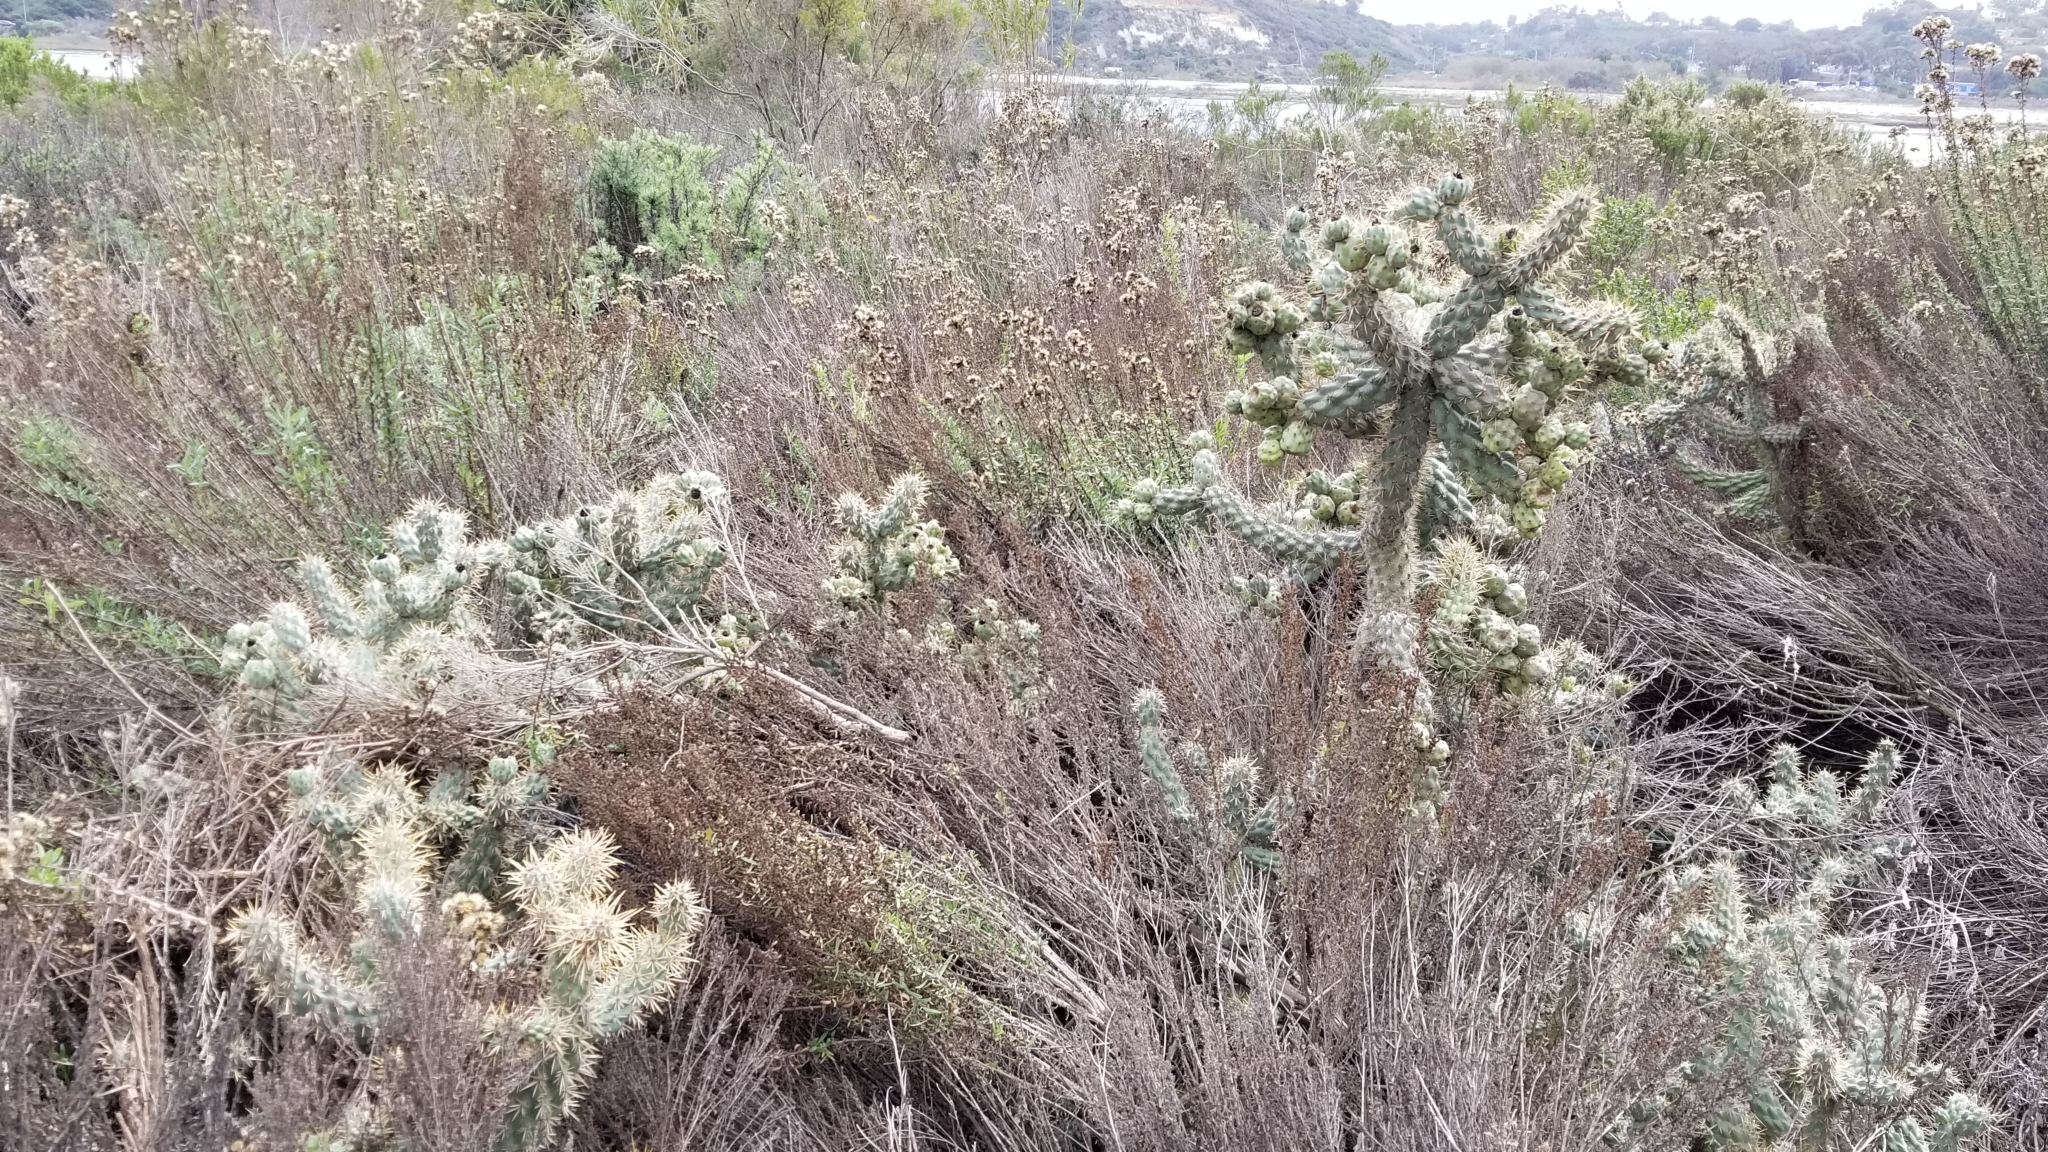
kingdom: Plantae
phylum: Tracheophyta
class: Magnoliopsida
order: Caryophyllales
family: Cactaceae
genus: Cylindropuntia
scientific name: Cylindropuntia prolifera
